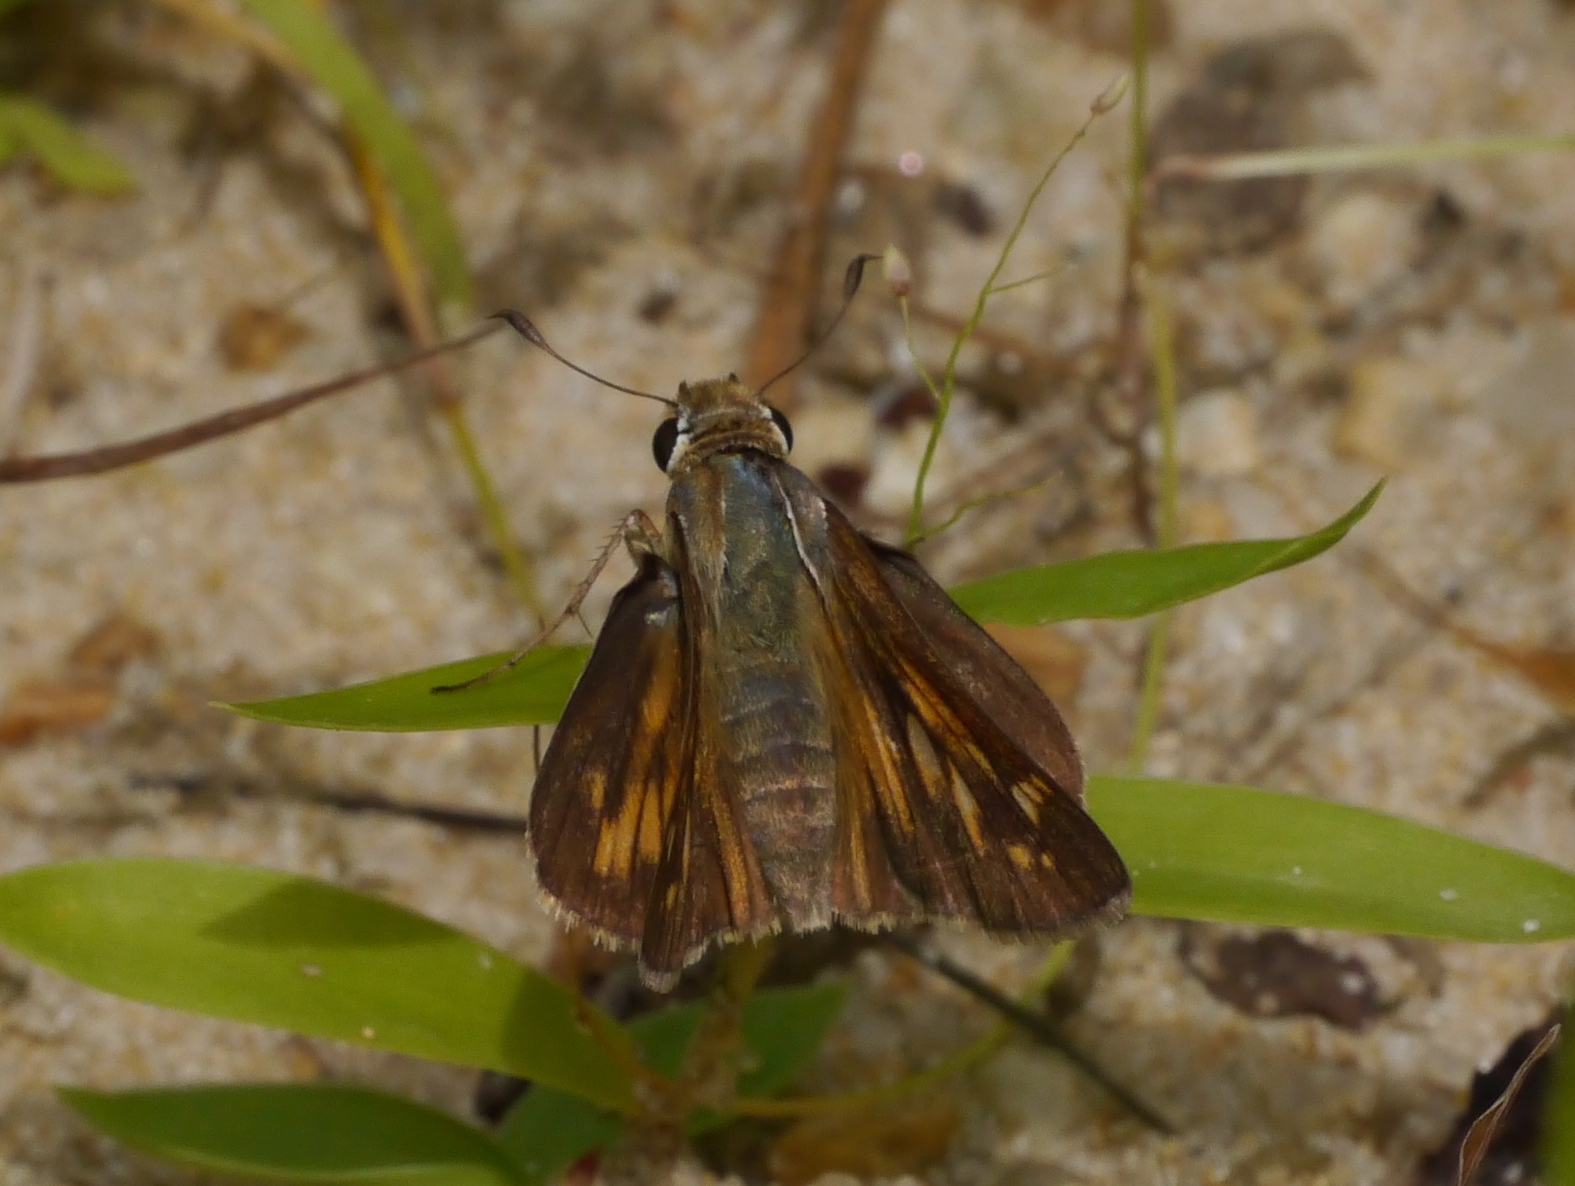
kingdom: Animalia
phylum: Arthropoda
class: Insecta
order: Lepidoptera
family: Hesperiidae
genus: Atalopedes
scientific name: Atalopedes
